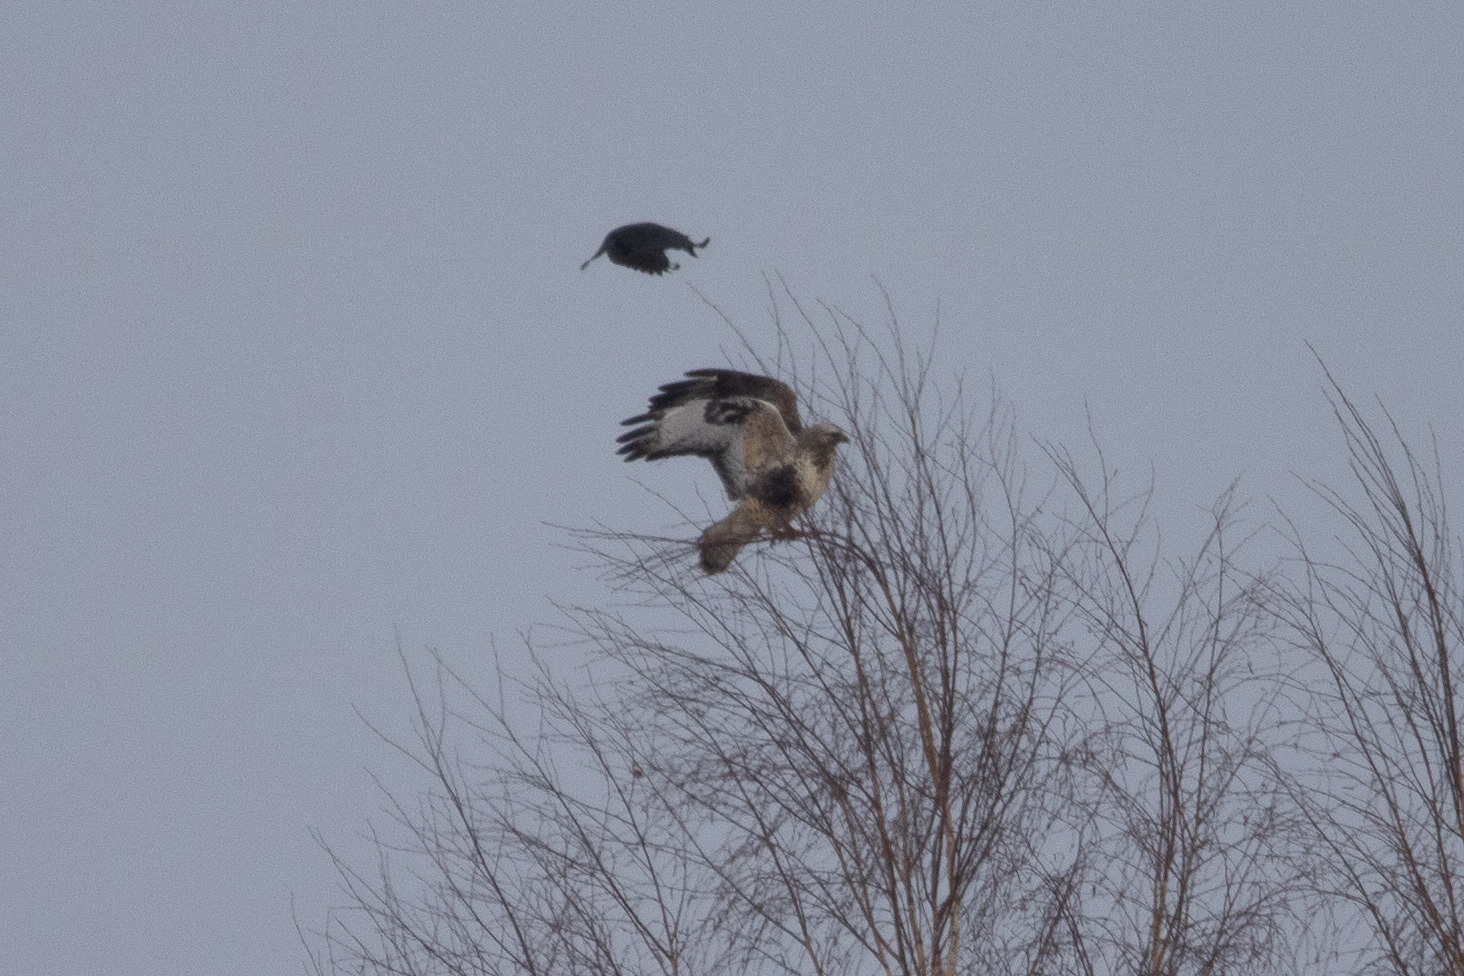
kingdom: Animalia
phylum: Chordata
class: Aves
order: Accipitriformes
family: Accipitridae
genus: Buteo
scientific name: Buteo lagopus
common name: Rough-legged buzzard
